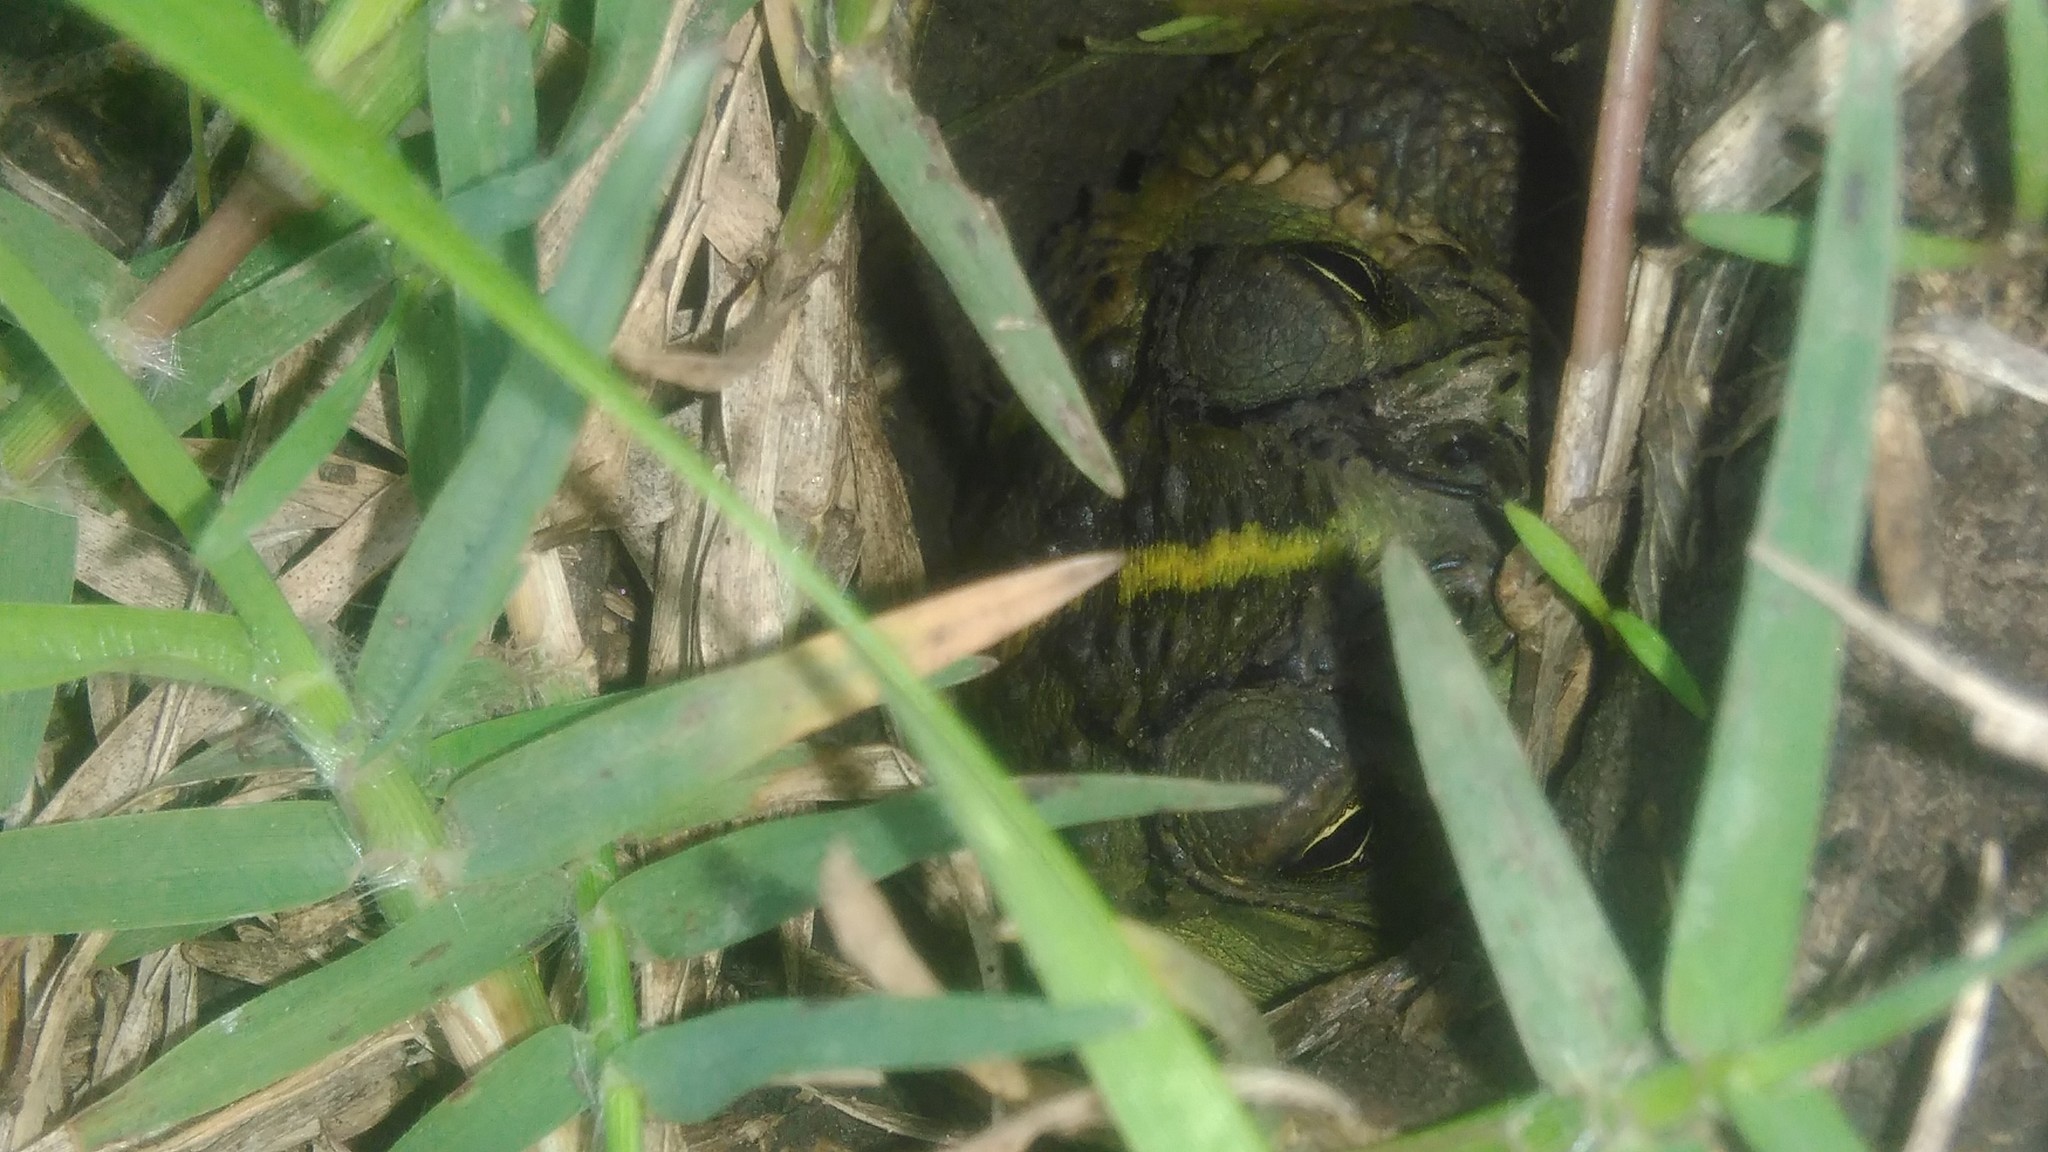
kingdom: Animalia
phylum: Chordata
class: Amphibia
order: Anura
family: Bufonidae
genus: Rhinella
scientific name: Rhinella dorbignyi
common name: D´orbigny’s toad
